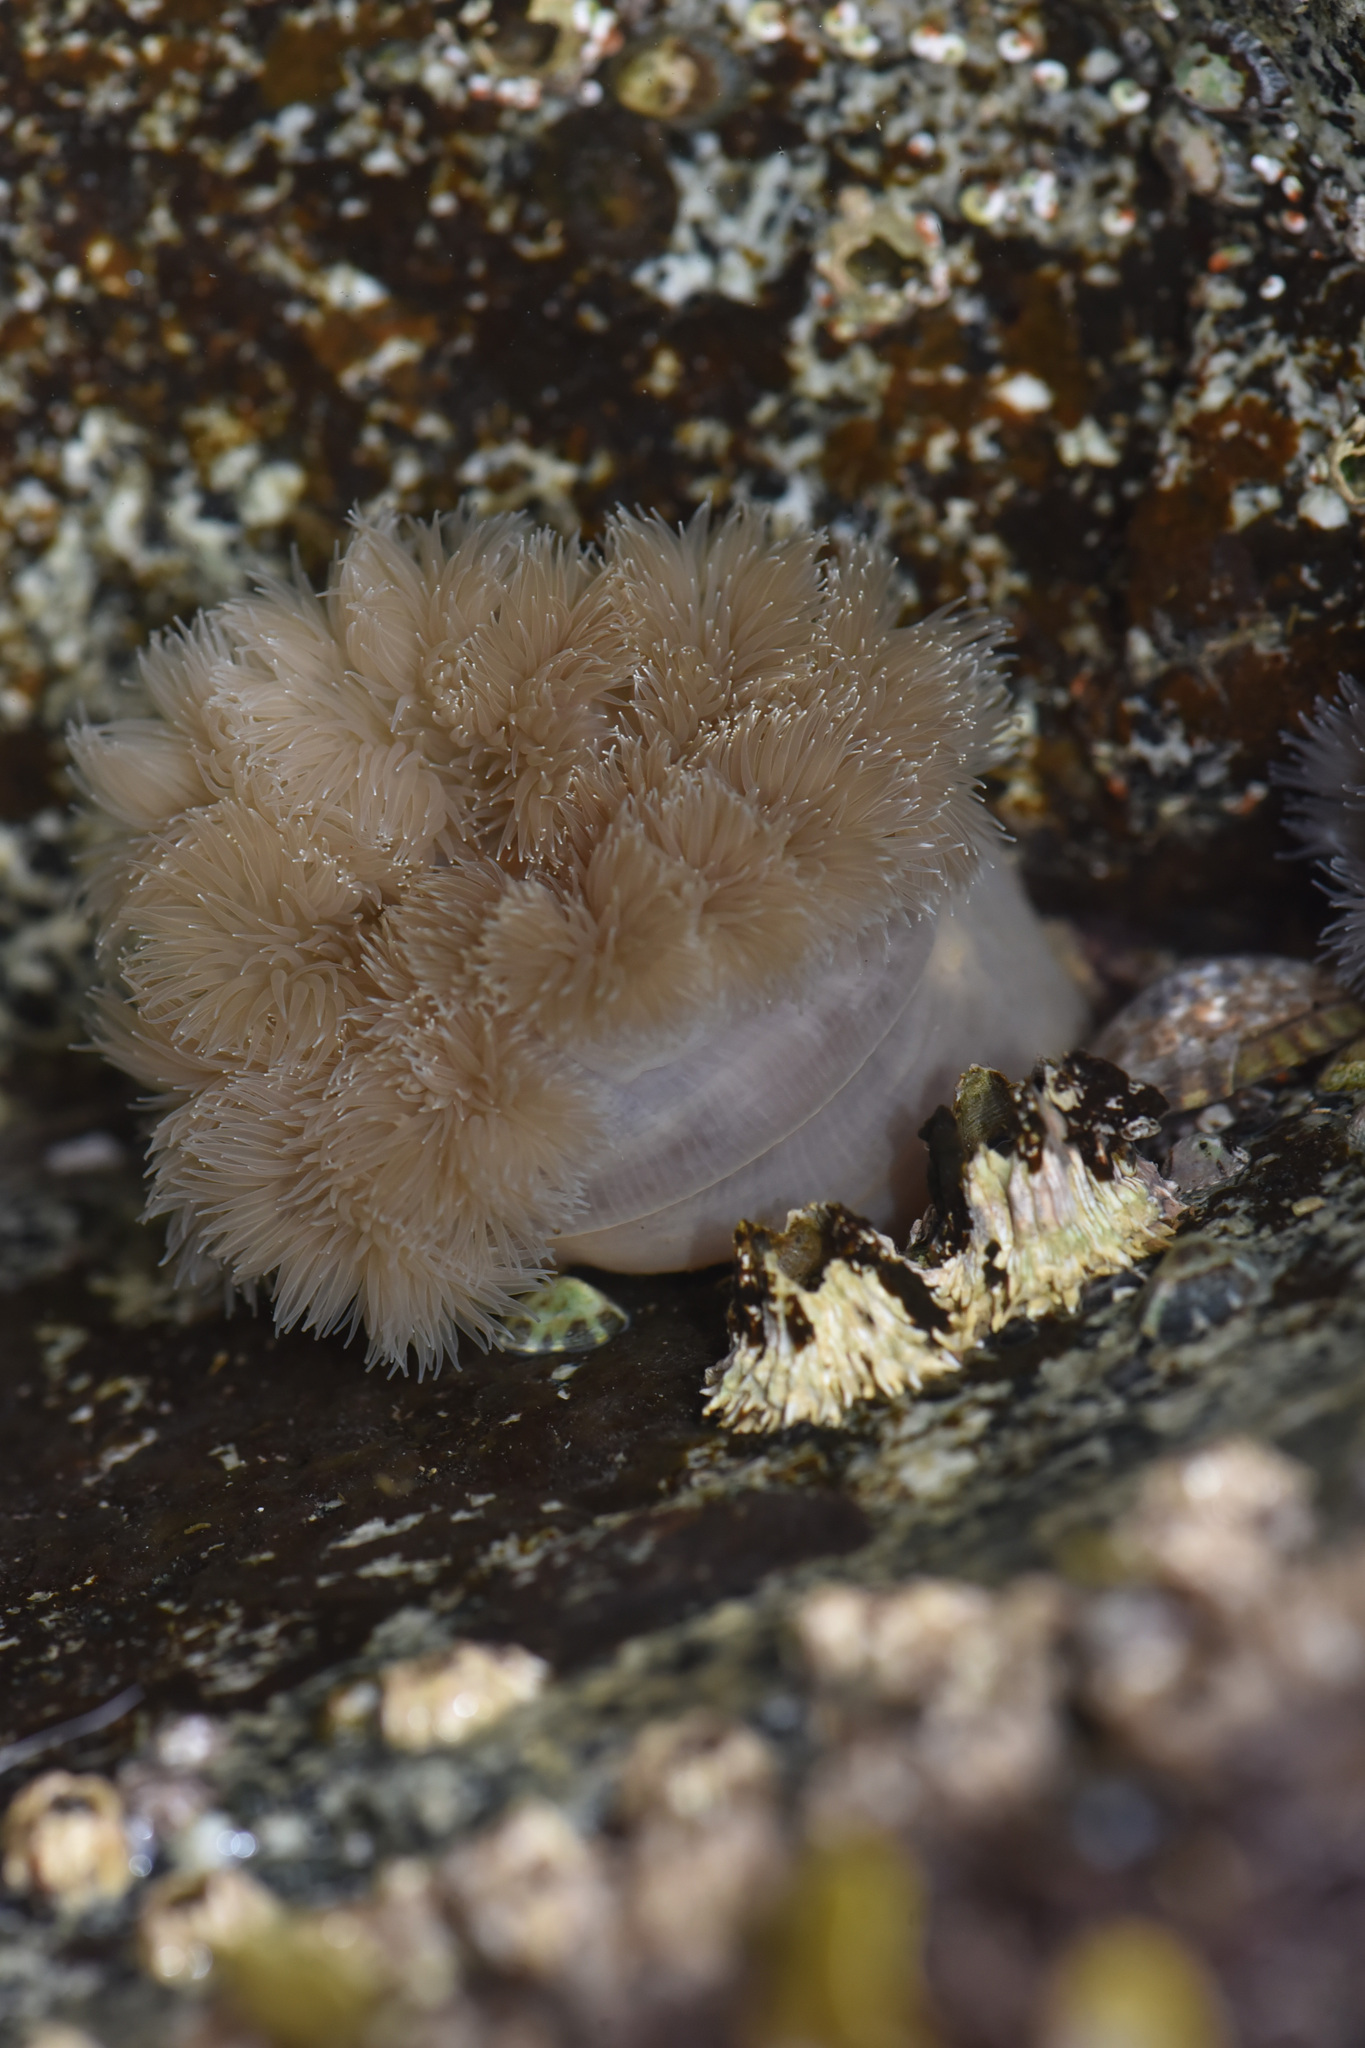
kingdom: Animalia
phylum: Cnidaria
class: Anthozoa
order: Actiniaria
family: Metridiidae
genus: Metridium
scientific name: Metridium senile
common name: Clonal plumose anemone
